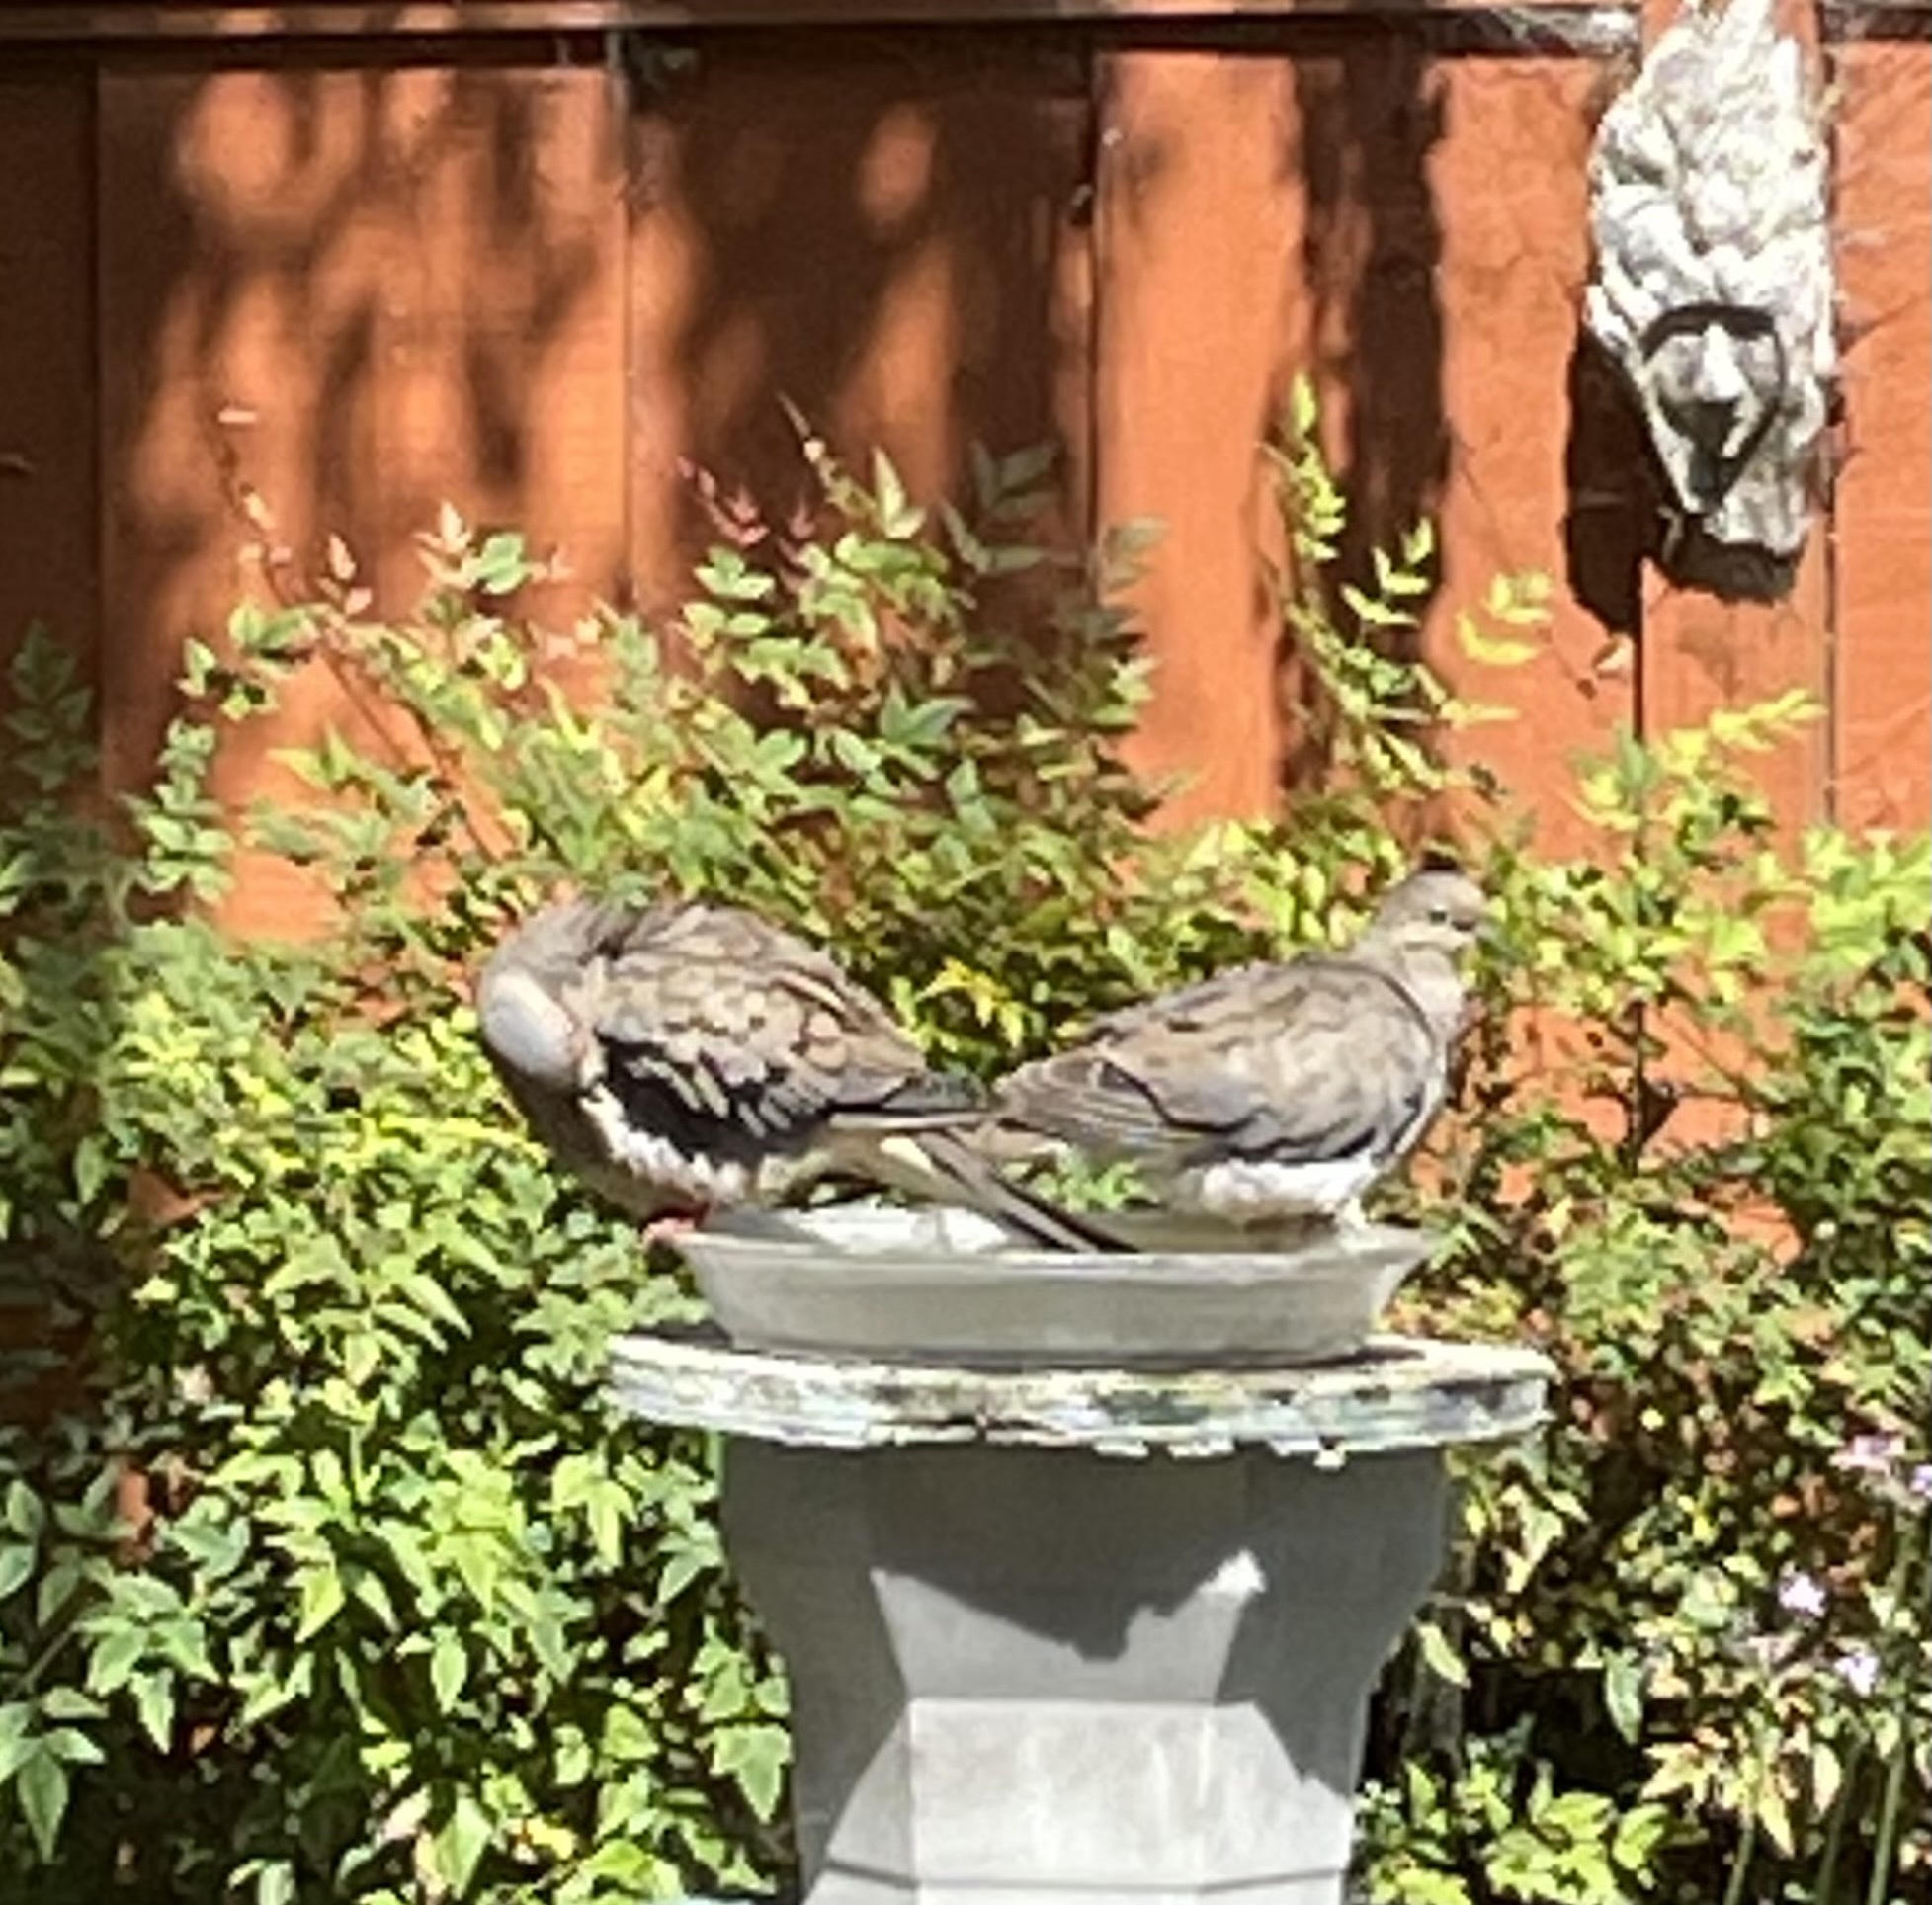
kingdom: Animalia
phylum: Chordata
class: Aves
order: Columbiformes
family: Columbidae
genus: Zenaida
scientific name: Zenaida macroura
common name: Mourning dove
